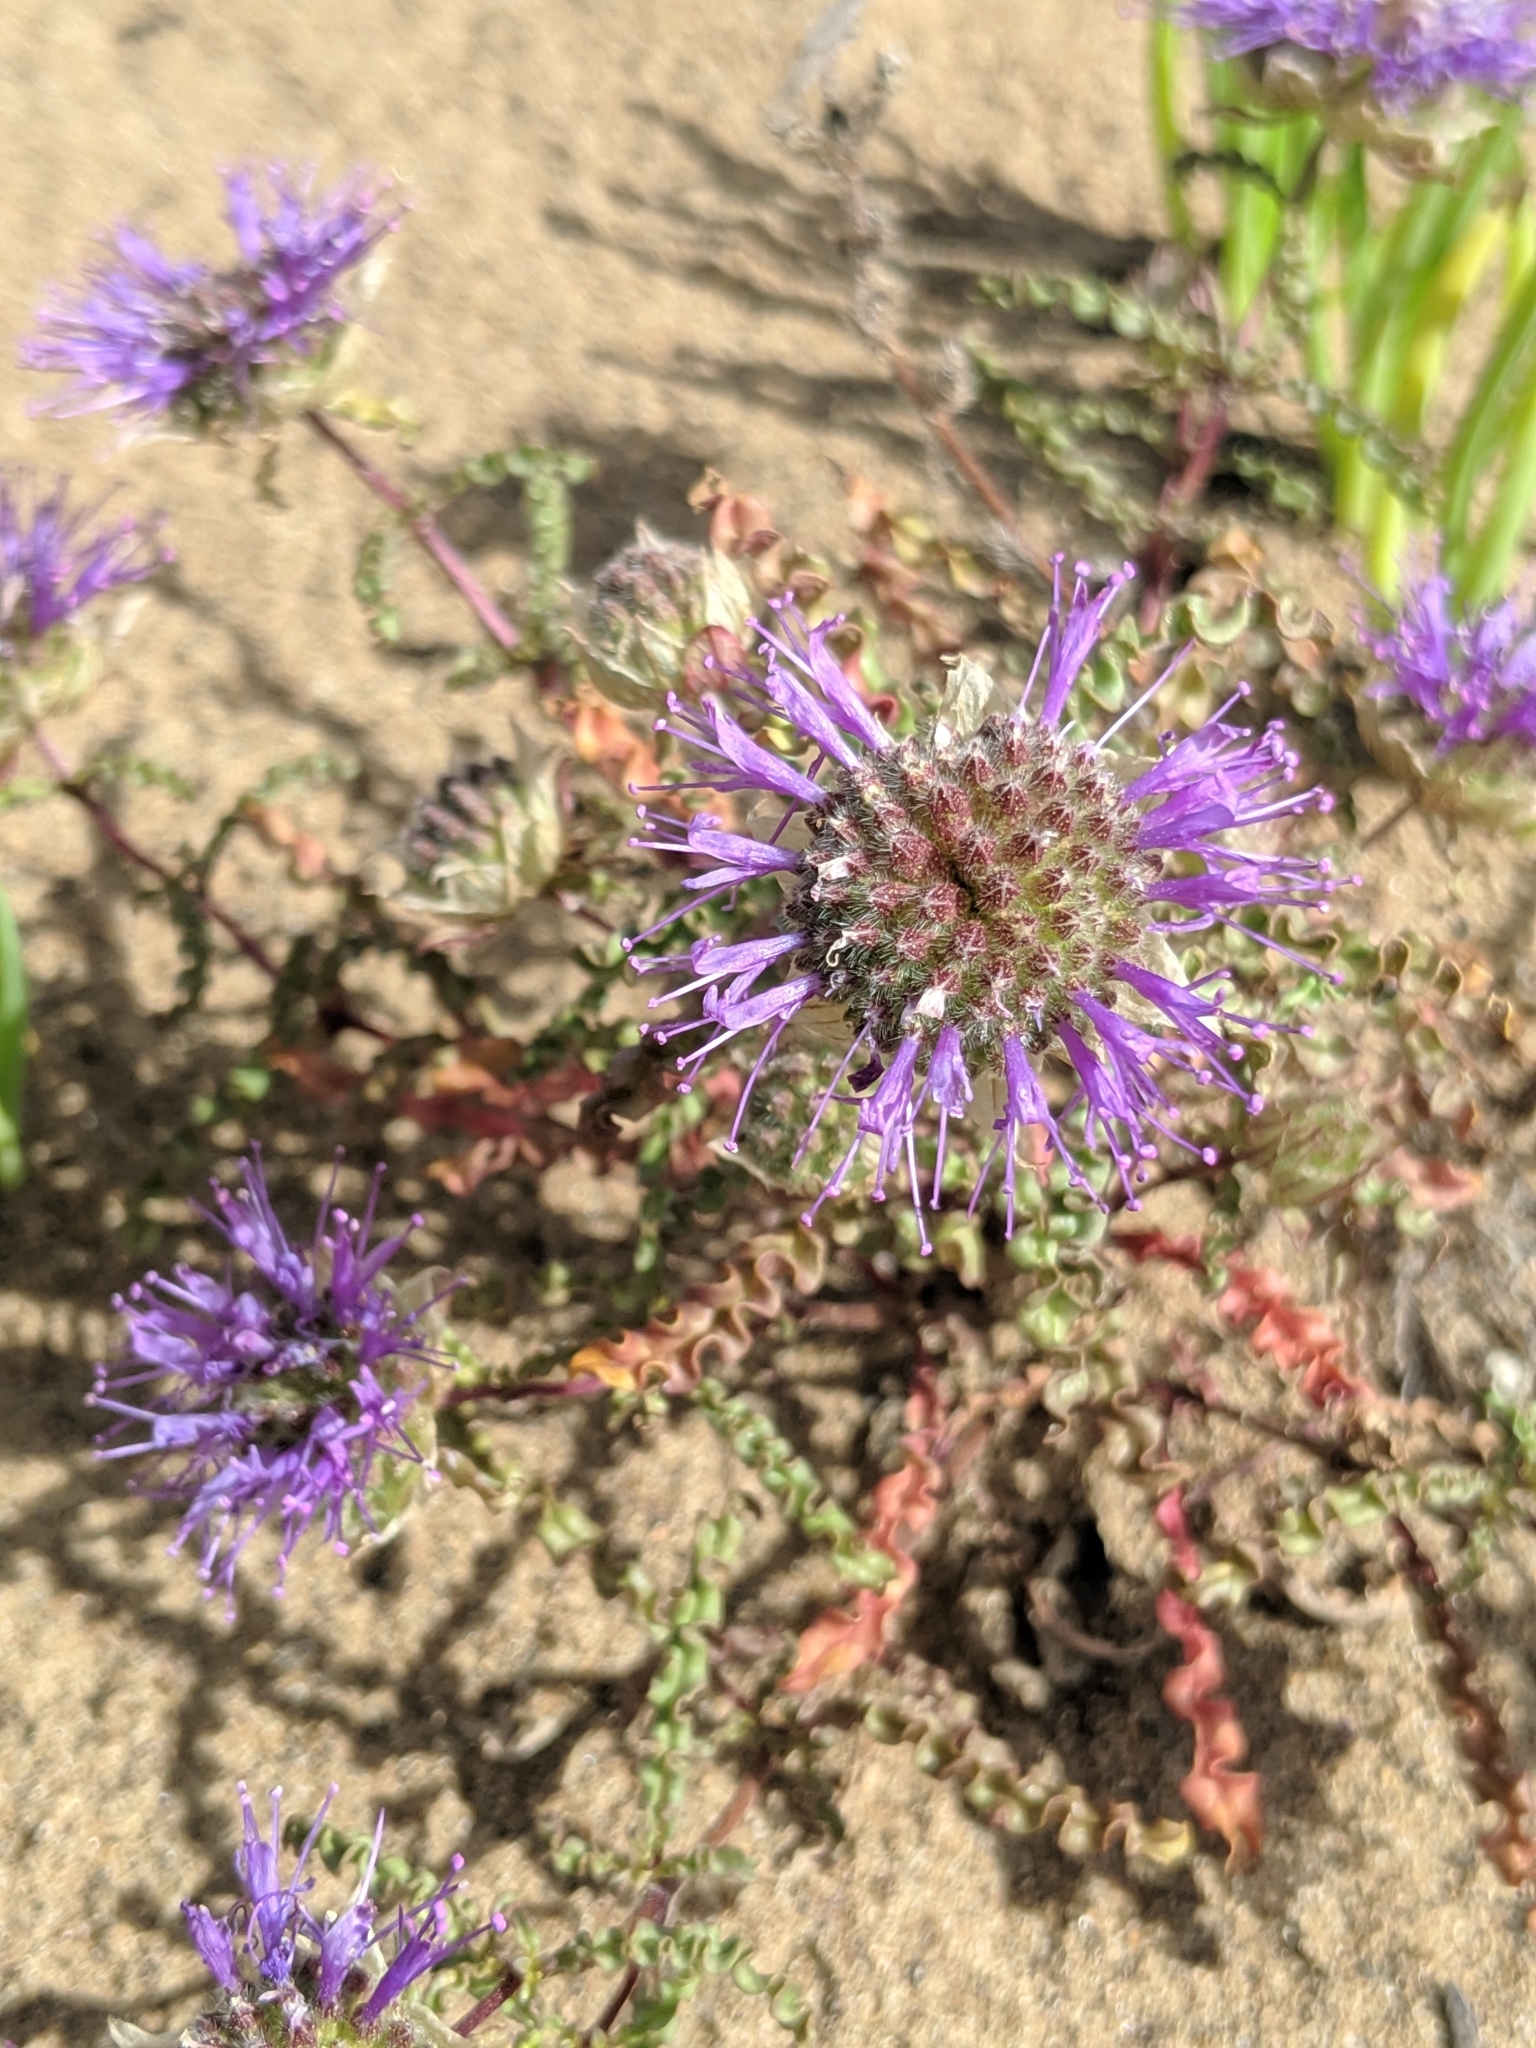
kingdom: Plantae
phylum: Tracheophyta
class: Magnoliopsida
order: Lamiales
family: Lamiaceae
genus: Monardella
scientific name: Monardella sinuata
